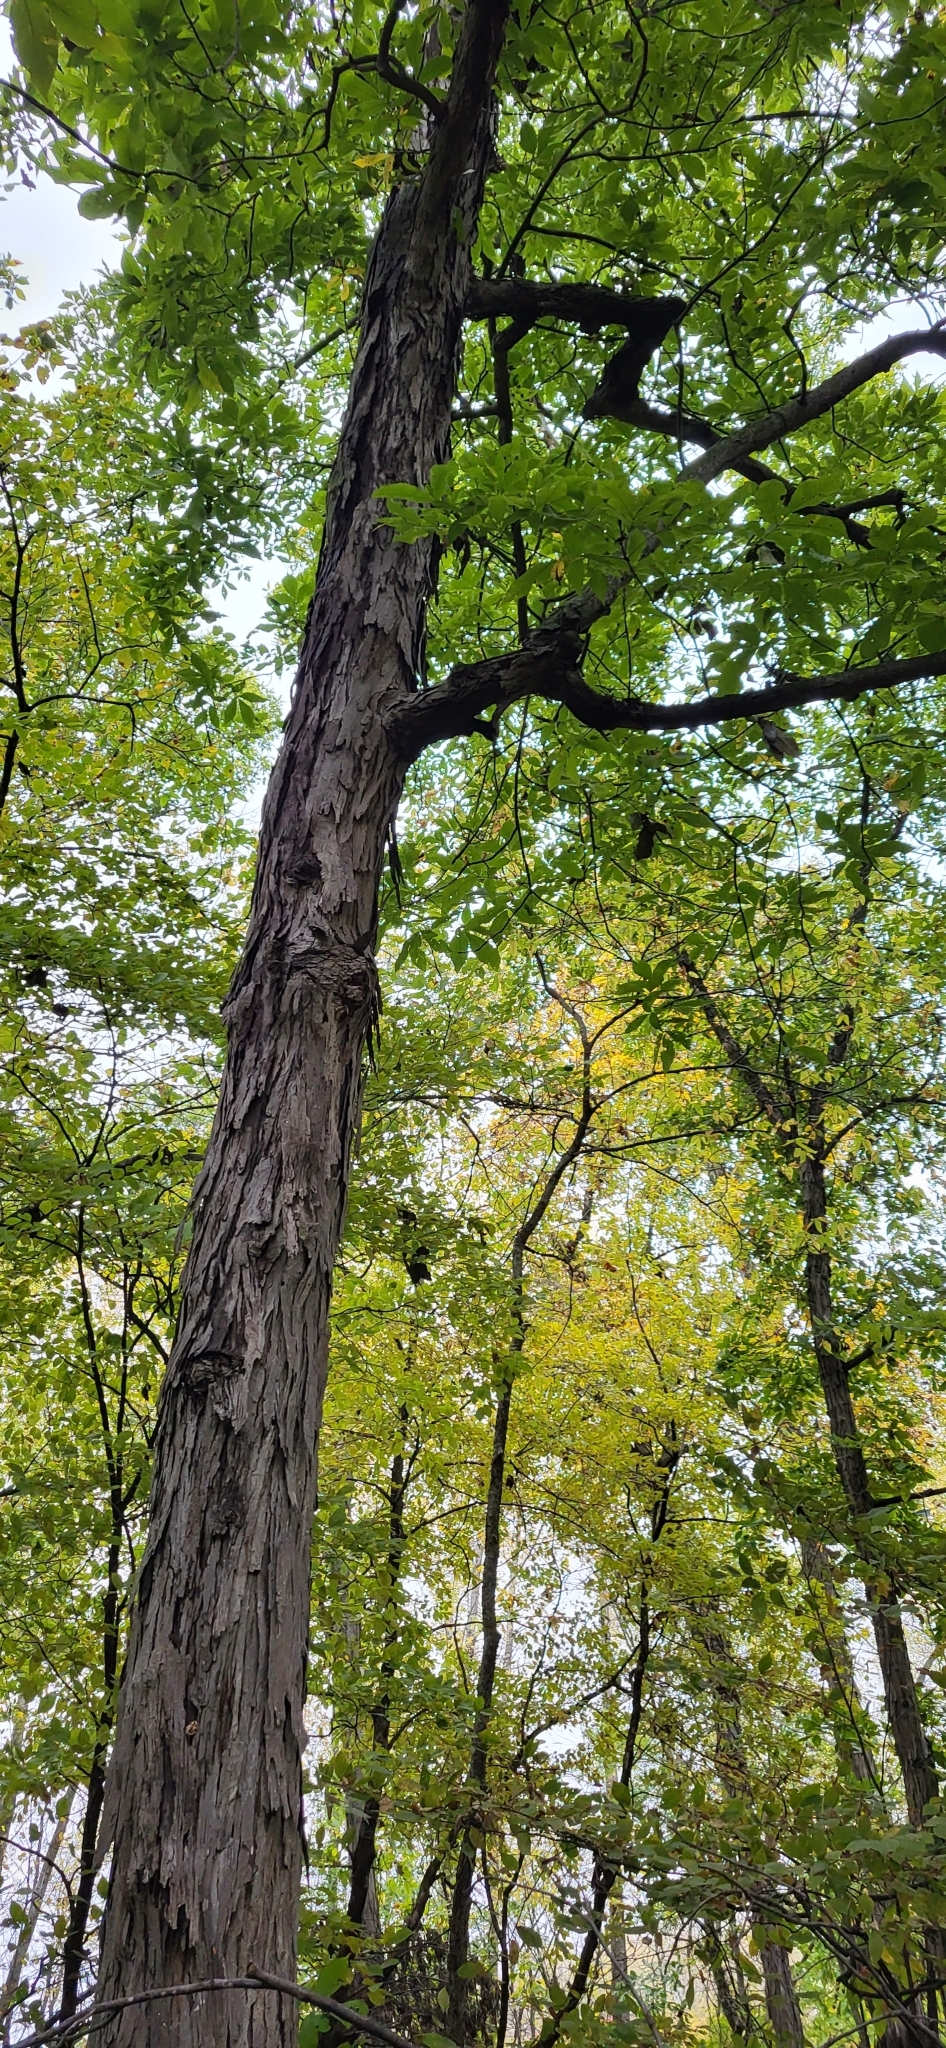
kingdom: Plantae
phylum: Tracheophyta
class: Magnoliopsida
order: Fagales
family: Juglandaceae
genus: Carya
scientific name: Carya ovata
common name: Shagbark hickory
